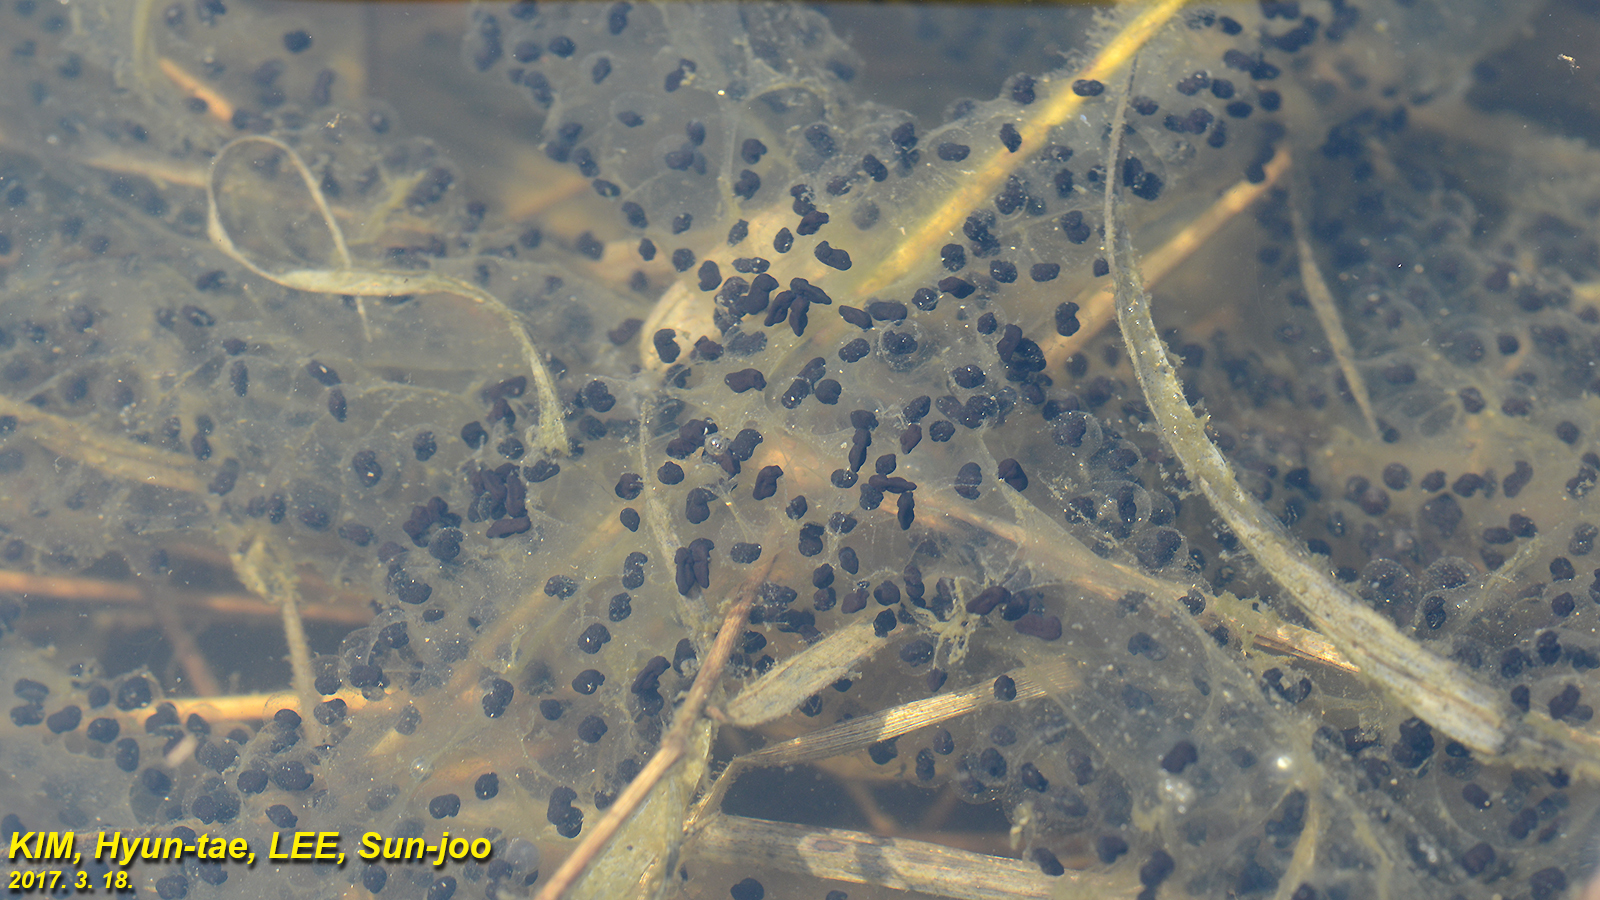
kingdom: Animalia
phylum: Chordata
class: Amphibia
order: Anura
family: Bufonidae
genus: Bufo
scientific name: Bufo gargarizans
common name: Asiatic toad
